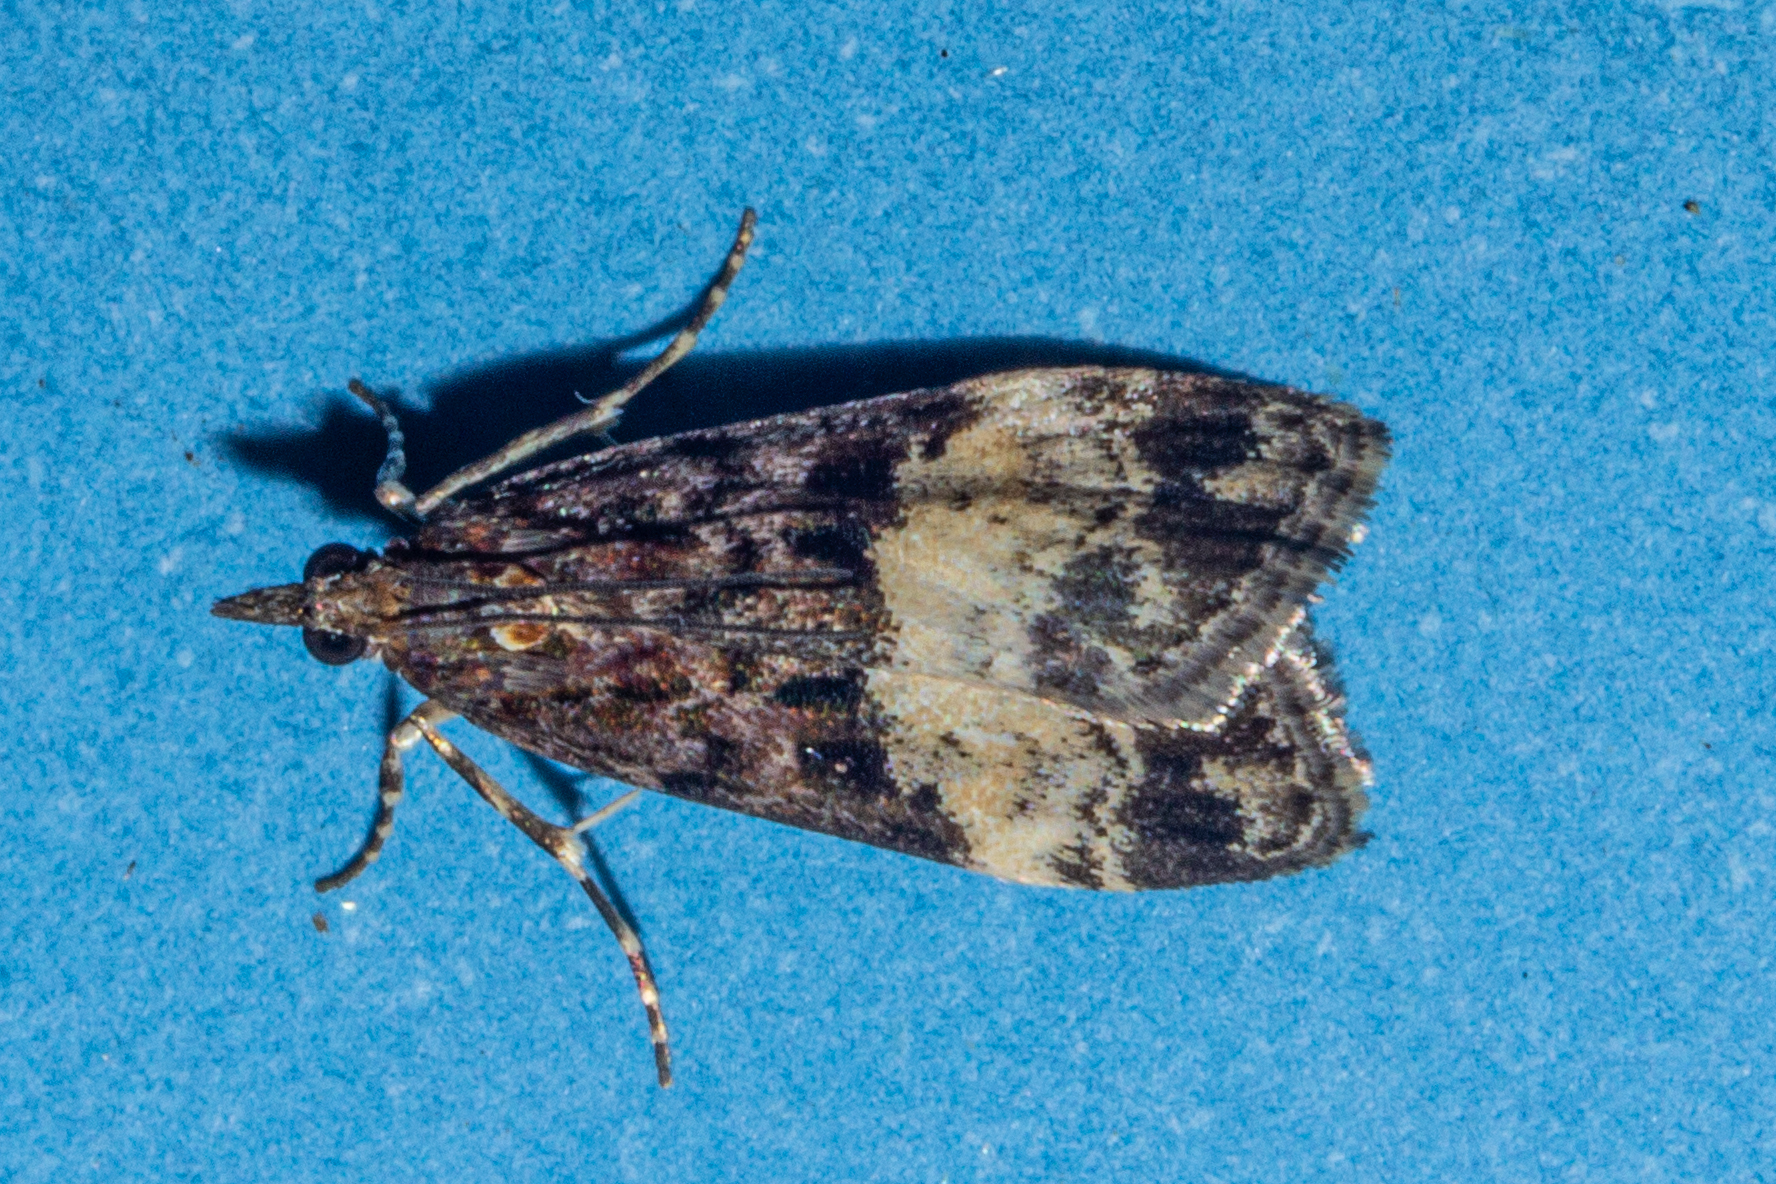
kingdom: Animalia
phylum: Arthropoda
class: Insecta
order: Lepidoptera
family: Crambidae
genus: Scoparia
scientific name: Scoparia minusculalis
